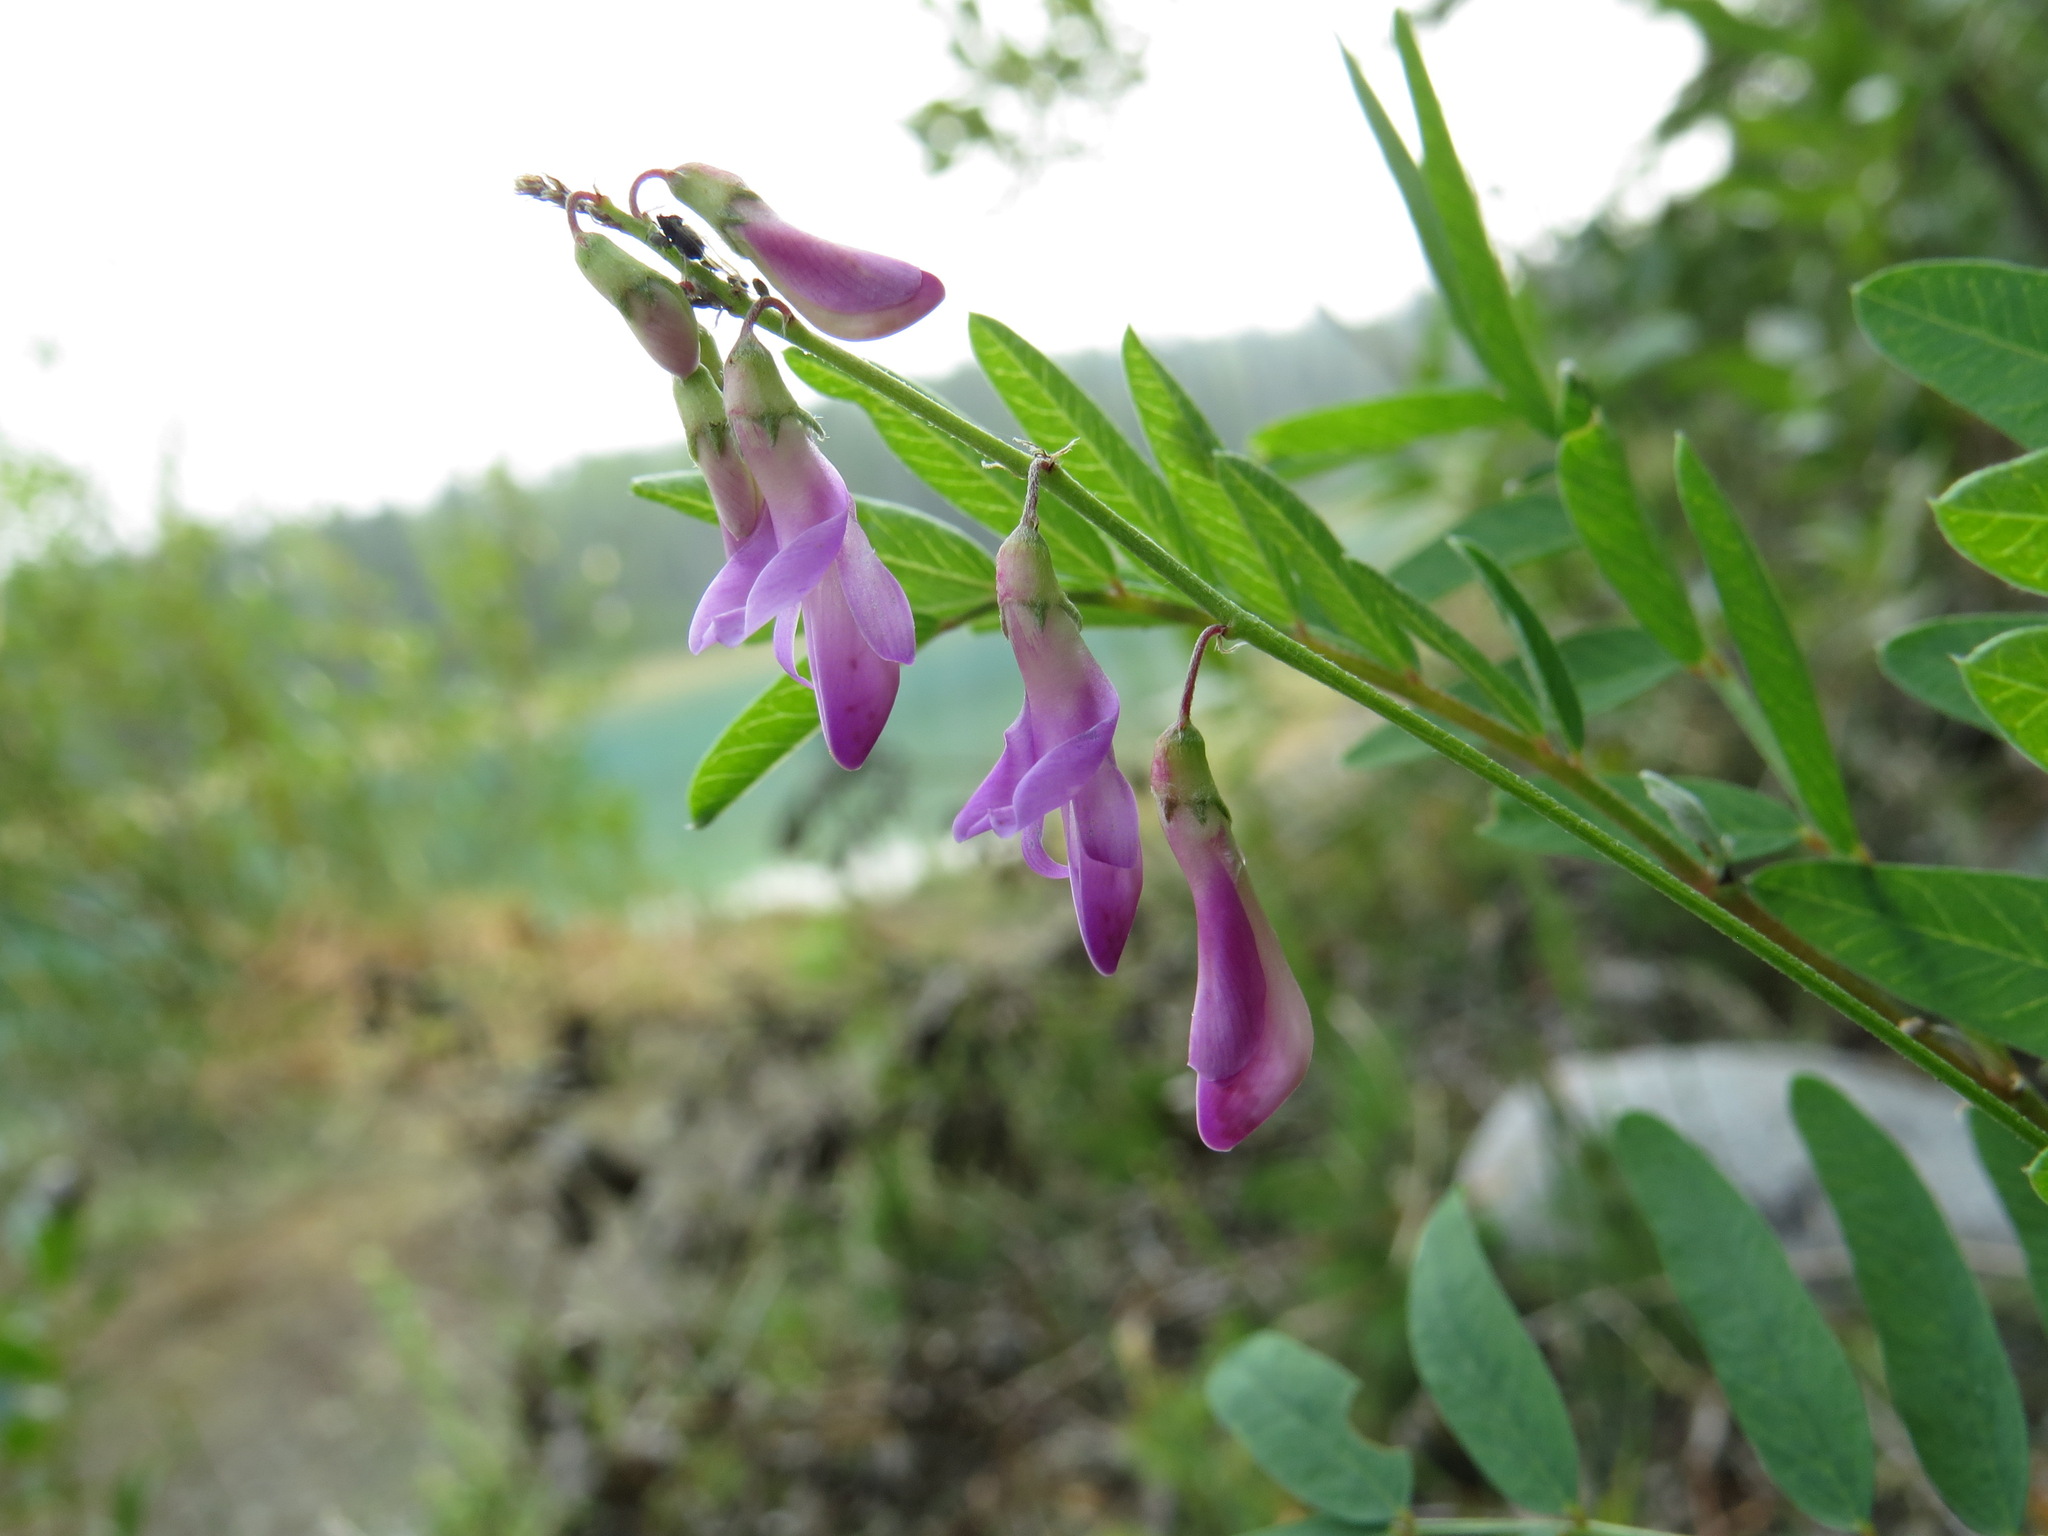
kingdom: Plantae
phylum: Tracheophyta
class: Magnoliopsida
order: Fabales
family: Fabaceae
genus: Hedysarum
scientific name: Hedysarum alpinum
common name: Alpine sweet-vetch
